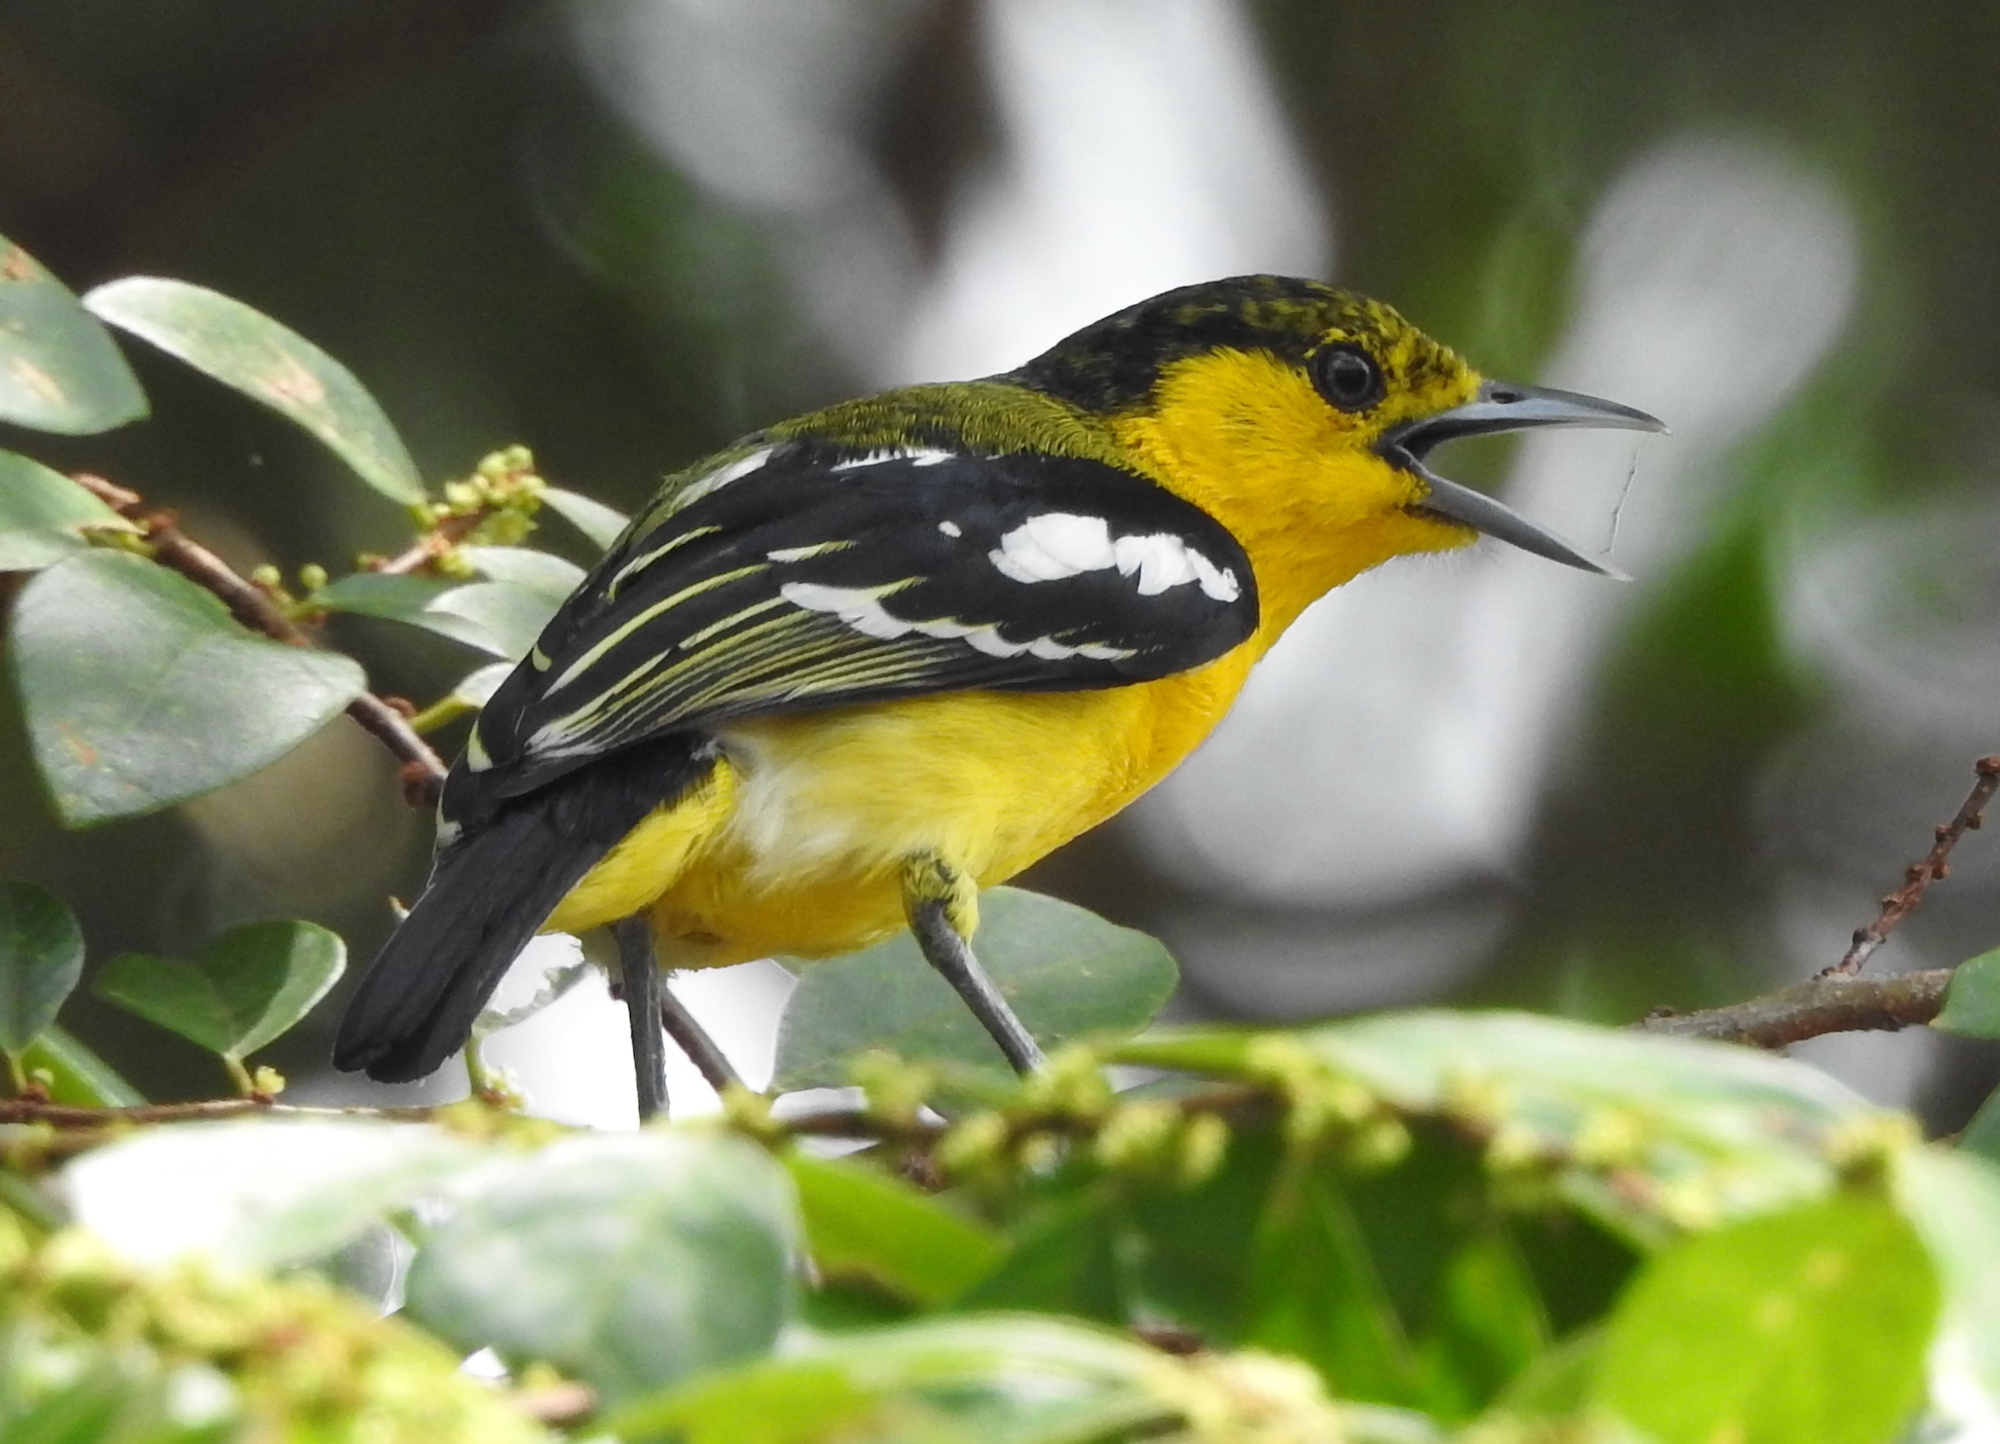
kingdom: Animalia
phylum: Chordata
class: Aves
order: Passeriformes
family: Aegithinidae
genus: Aegithina
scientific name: Aegithina tiphia
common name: Common iora
